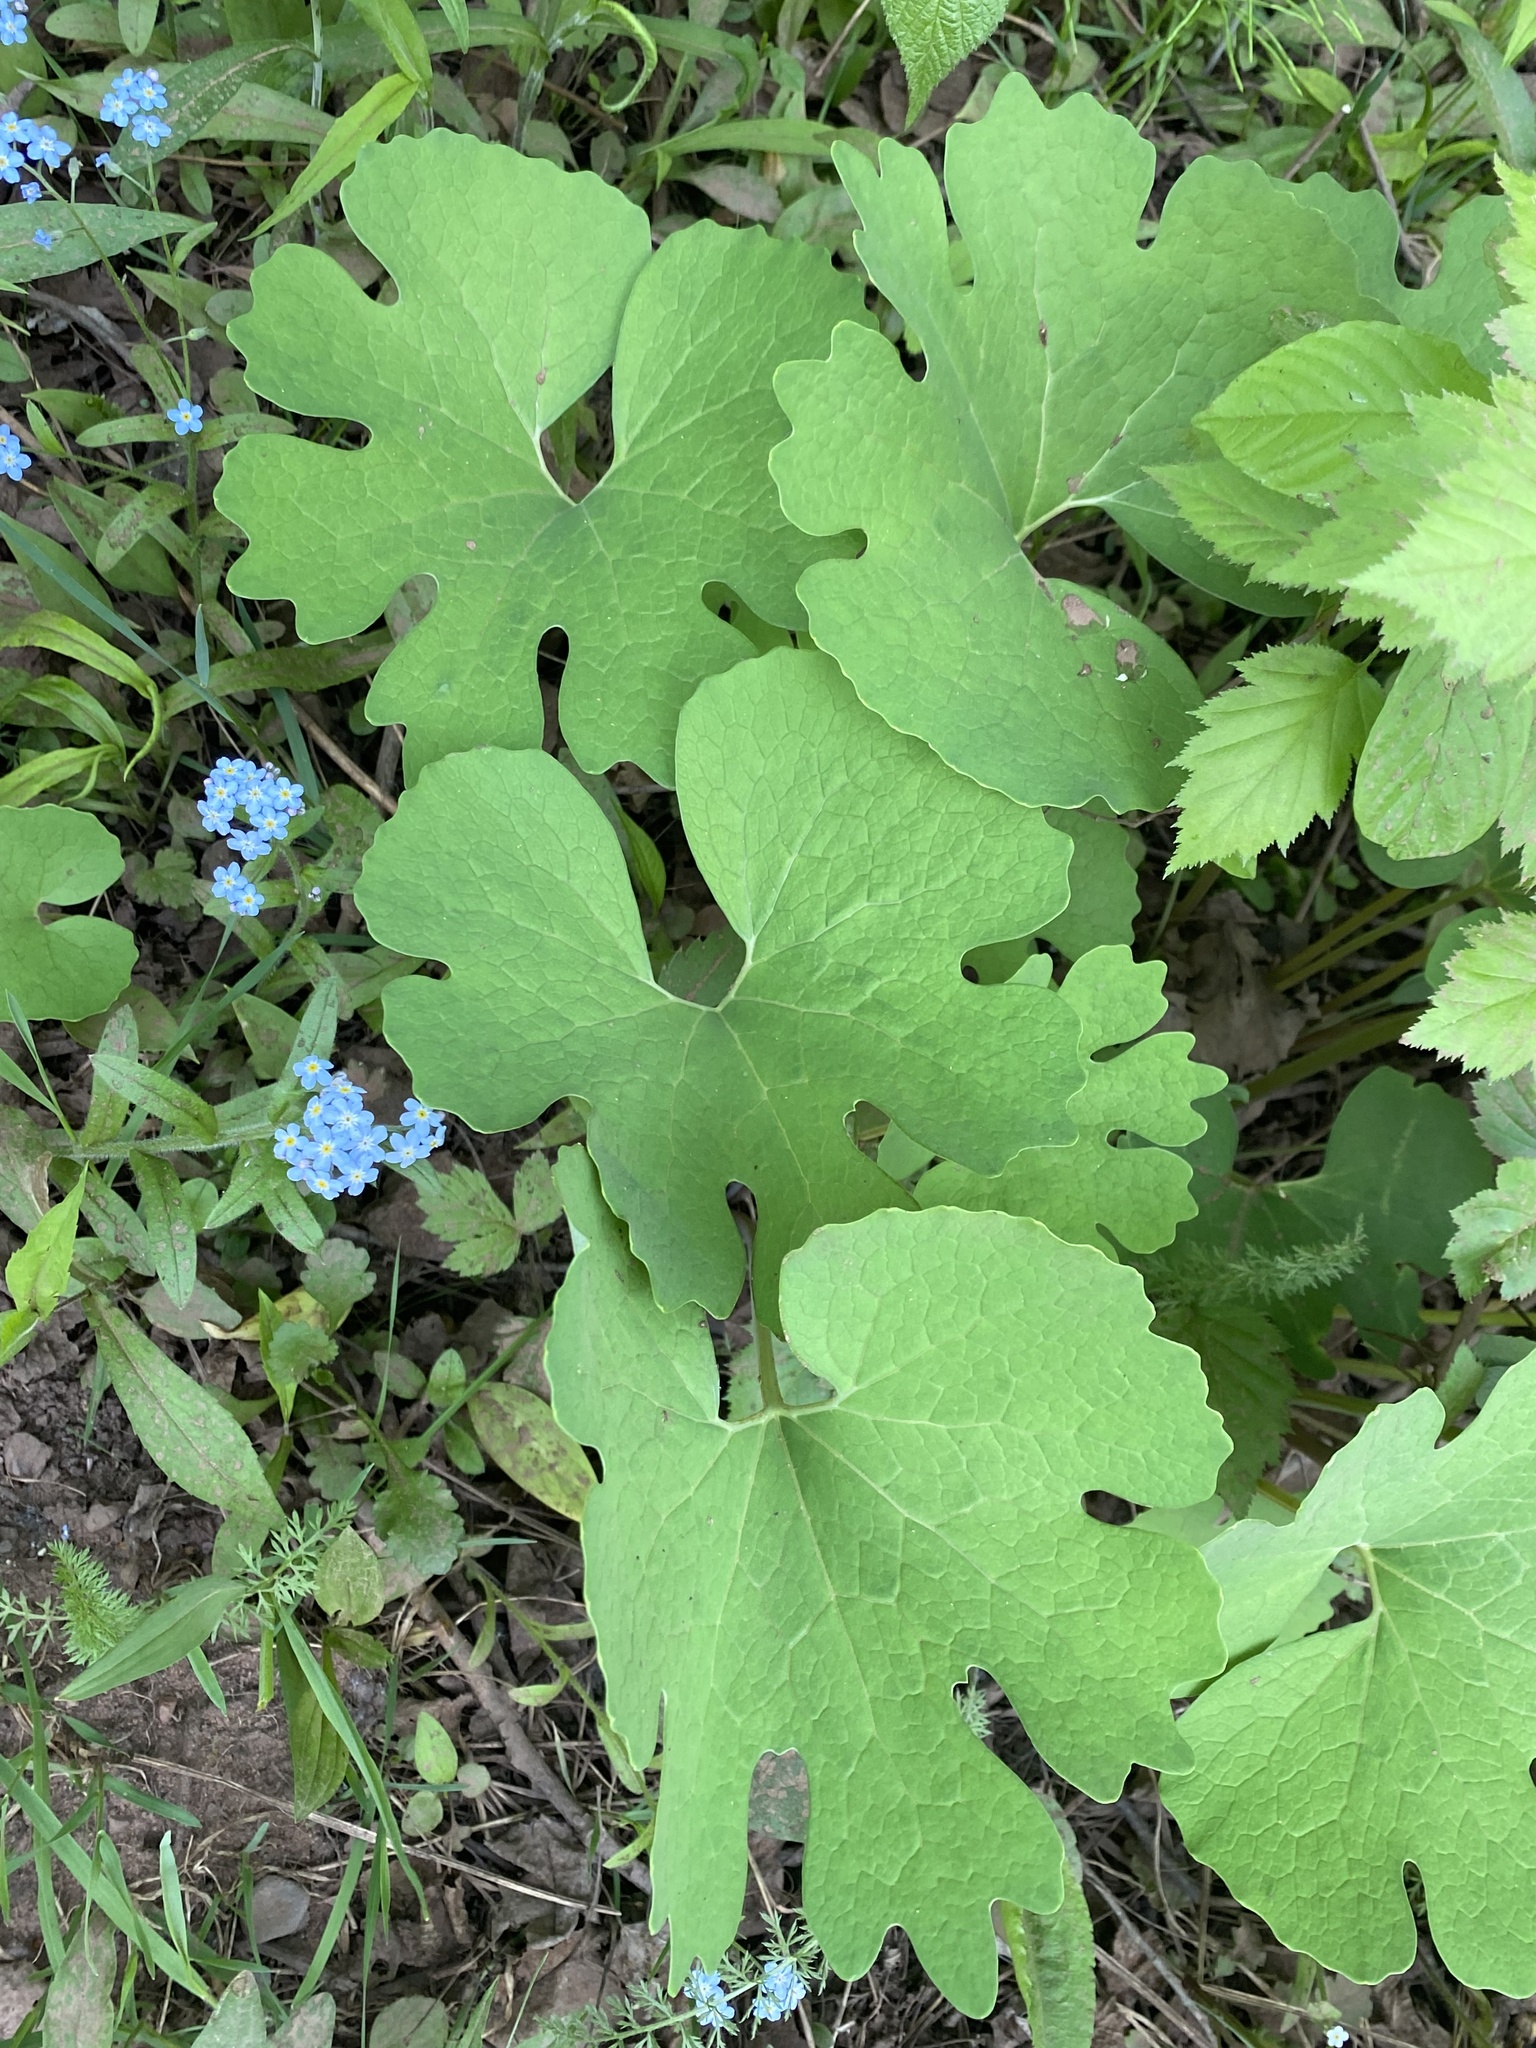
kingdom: Plantae
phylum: Tracheophyta
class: Magnoliopsida
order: Ranunculales
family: Papaveraceae
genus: Sanguinaria
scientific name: Sanguinaria canadensis
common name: Bloodroot
